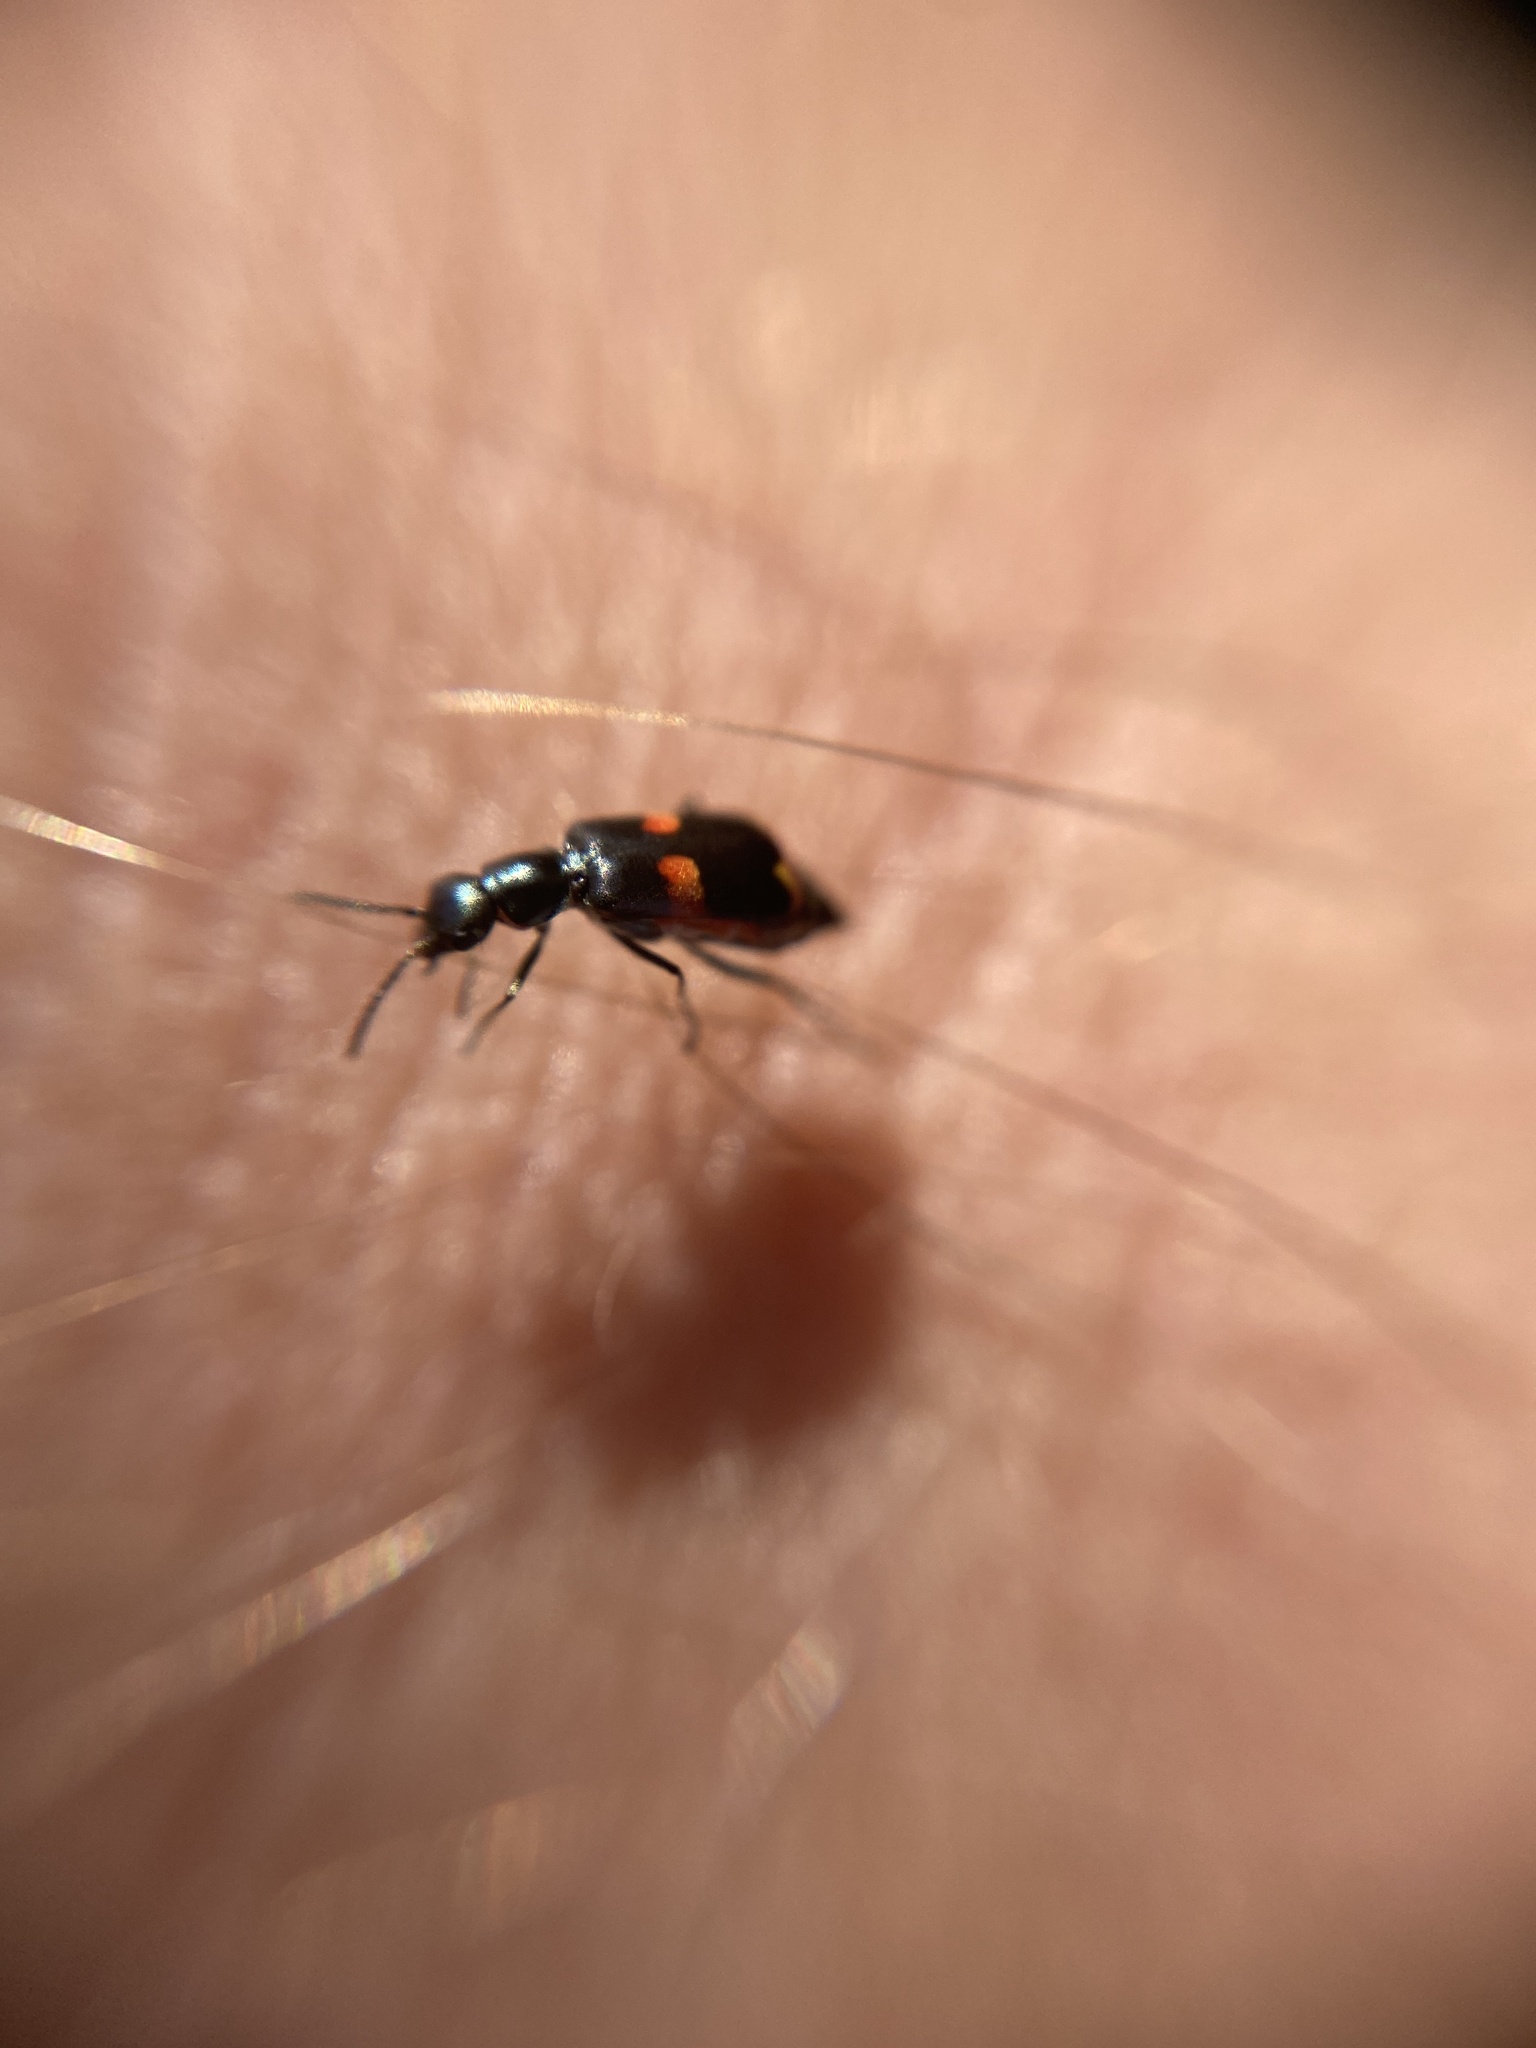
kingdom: Animalia
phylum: Arthropoda
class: Insecta
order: Coleoptera
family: Melyridae
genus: Anthocomus
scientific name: Anthocomus fasciatus
